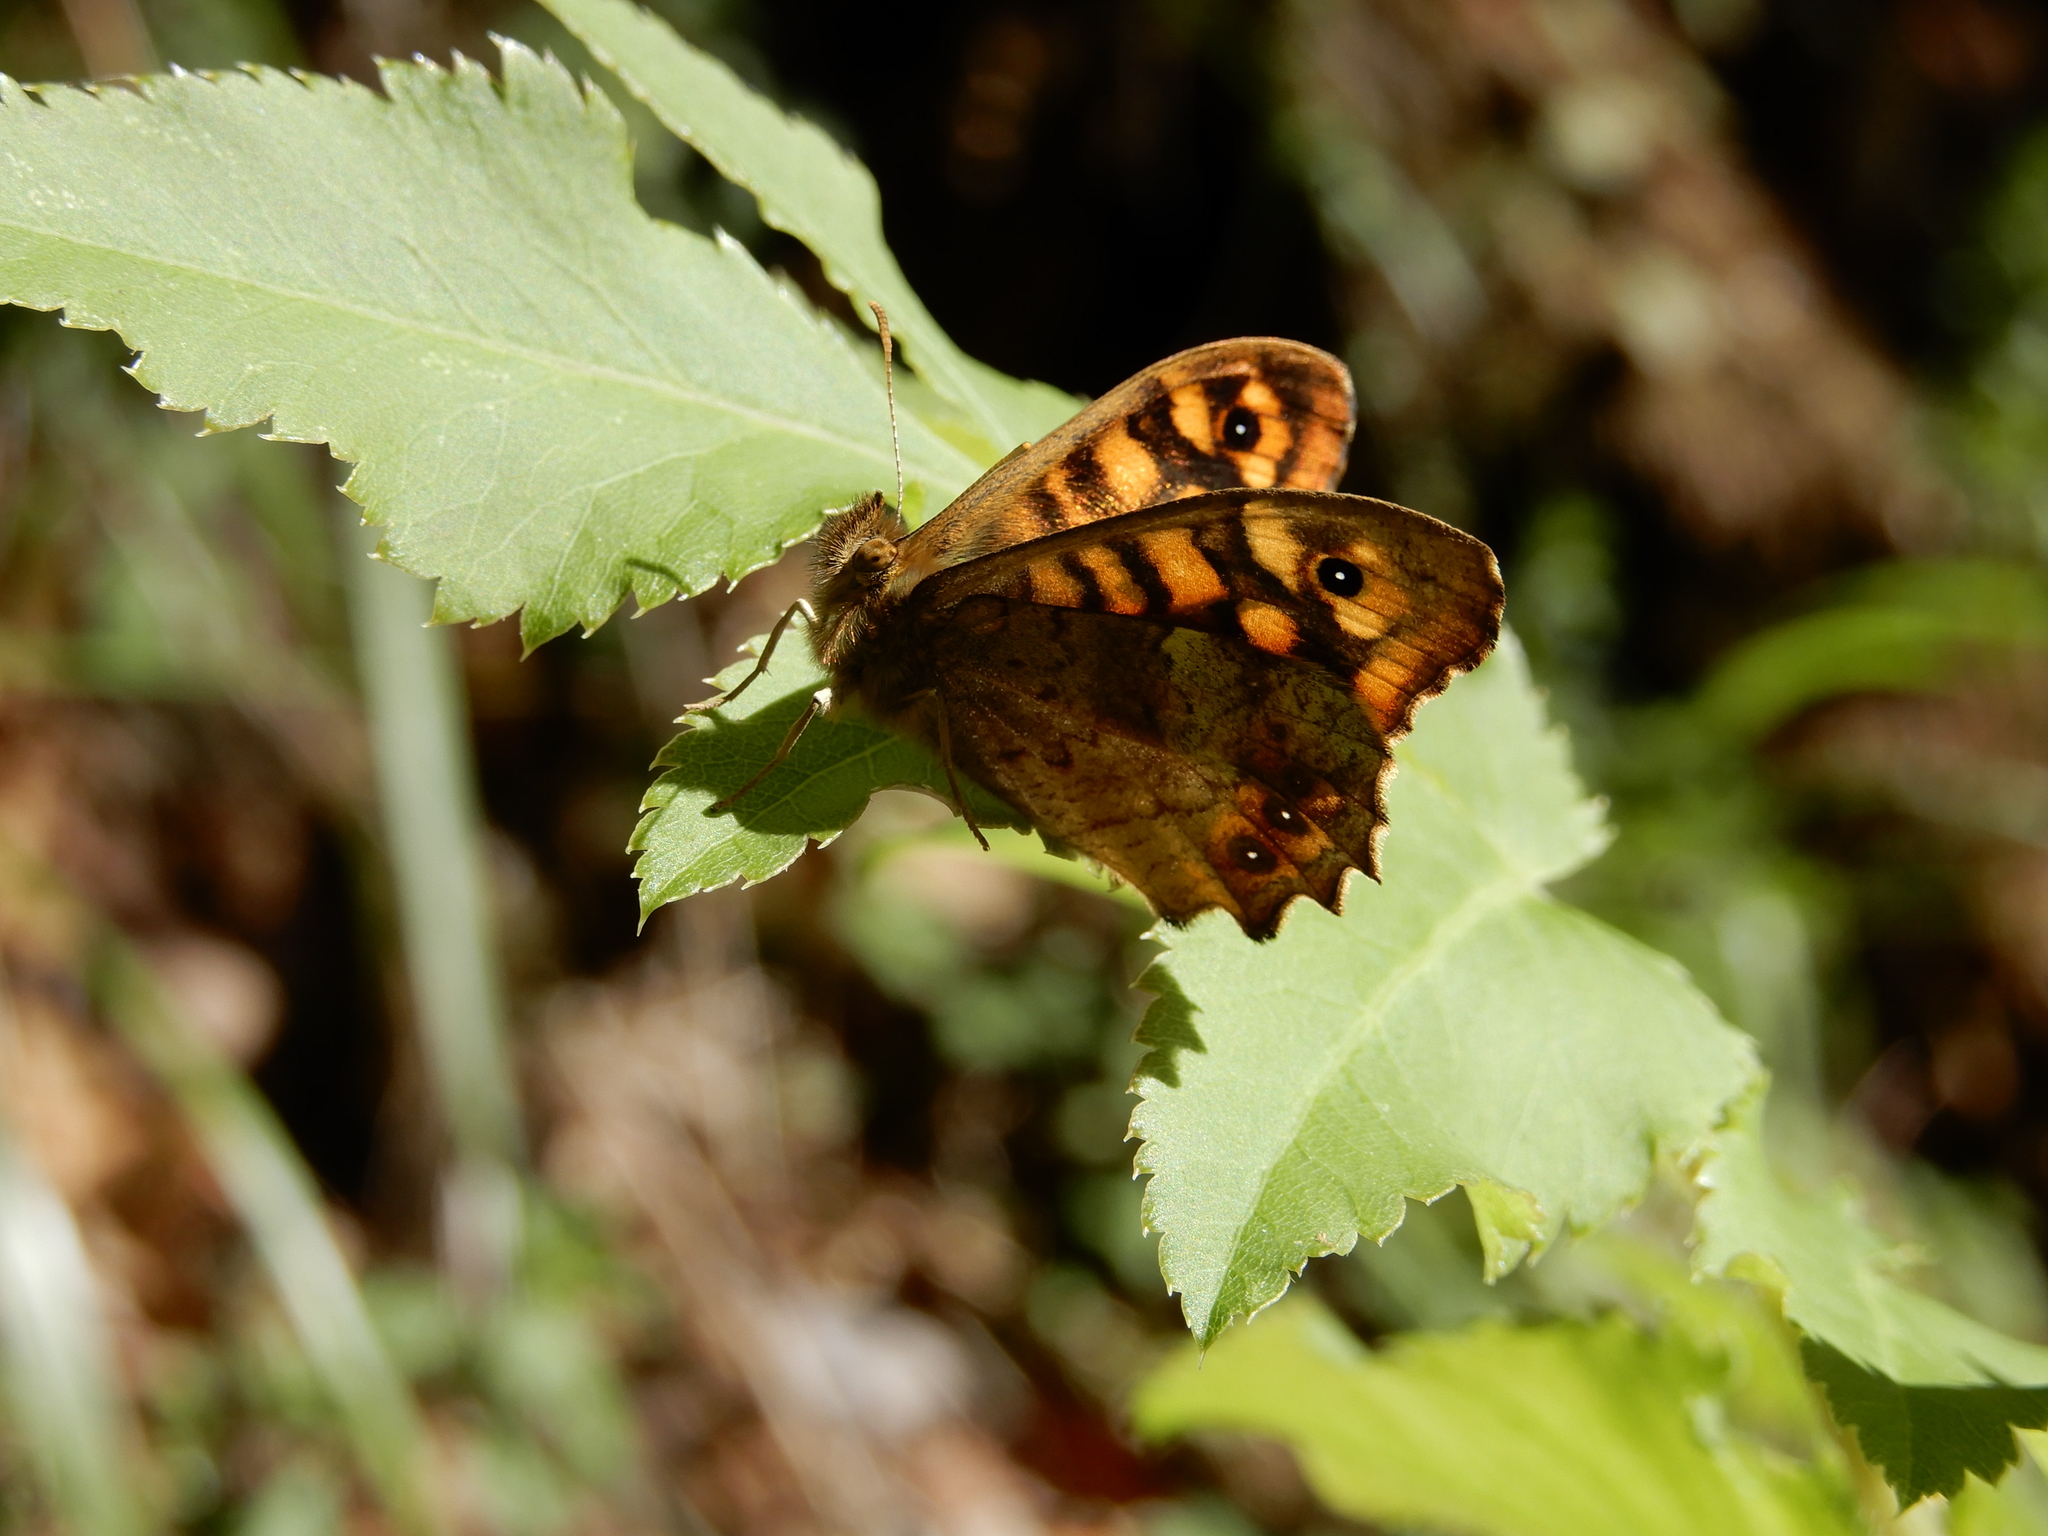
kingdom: Animalia
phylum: Arthropoda
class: Insecta
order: Lepidoptera
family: Nymphalidae
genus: Pararge
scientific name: Pararge aegeria
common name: Speckled wood
